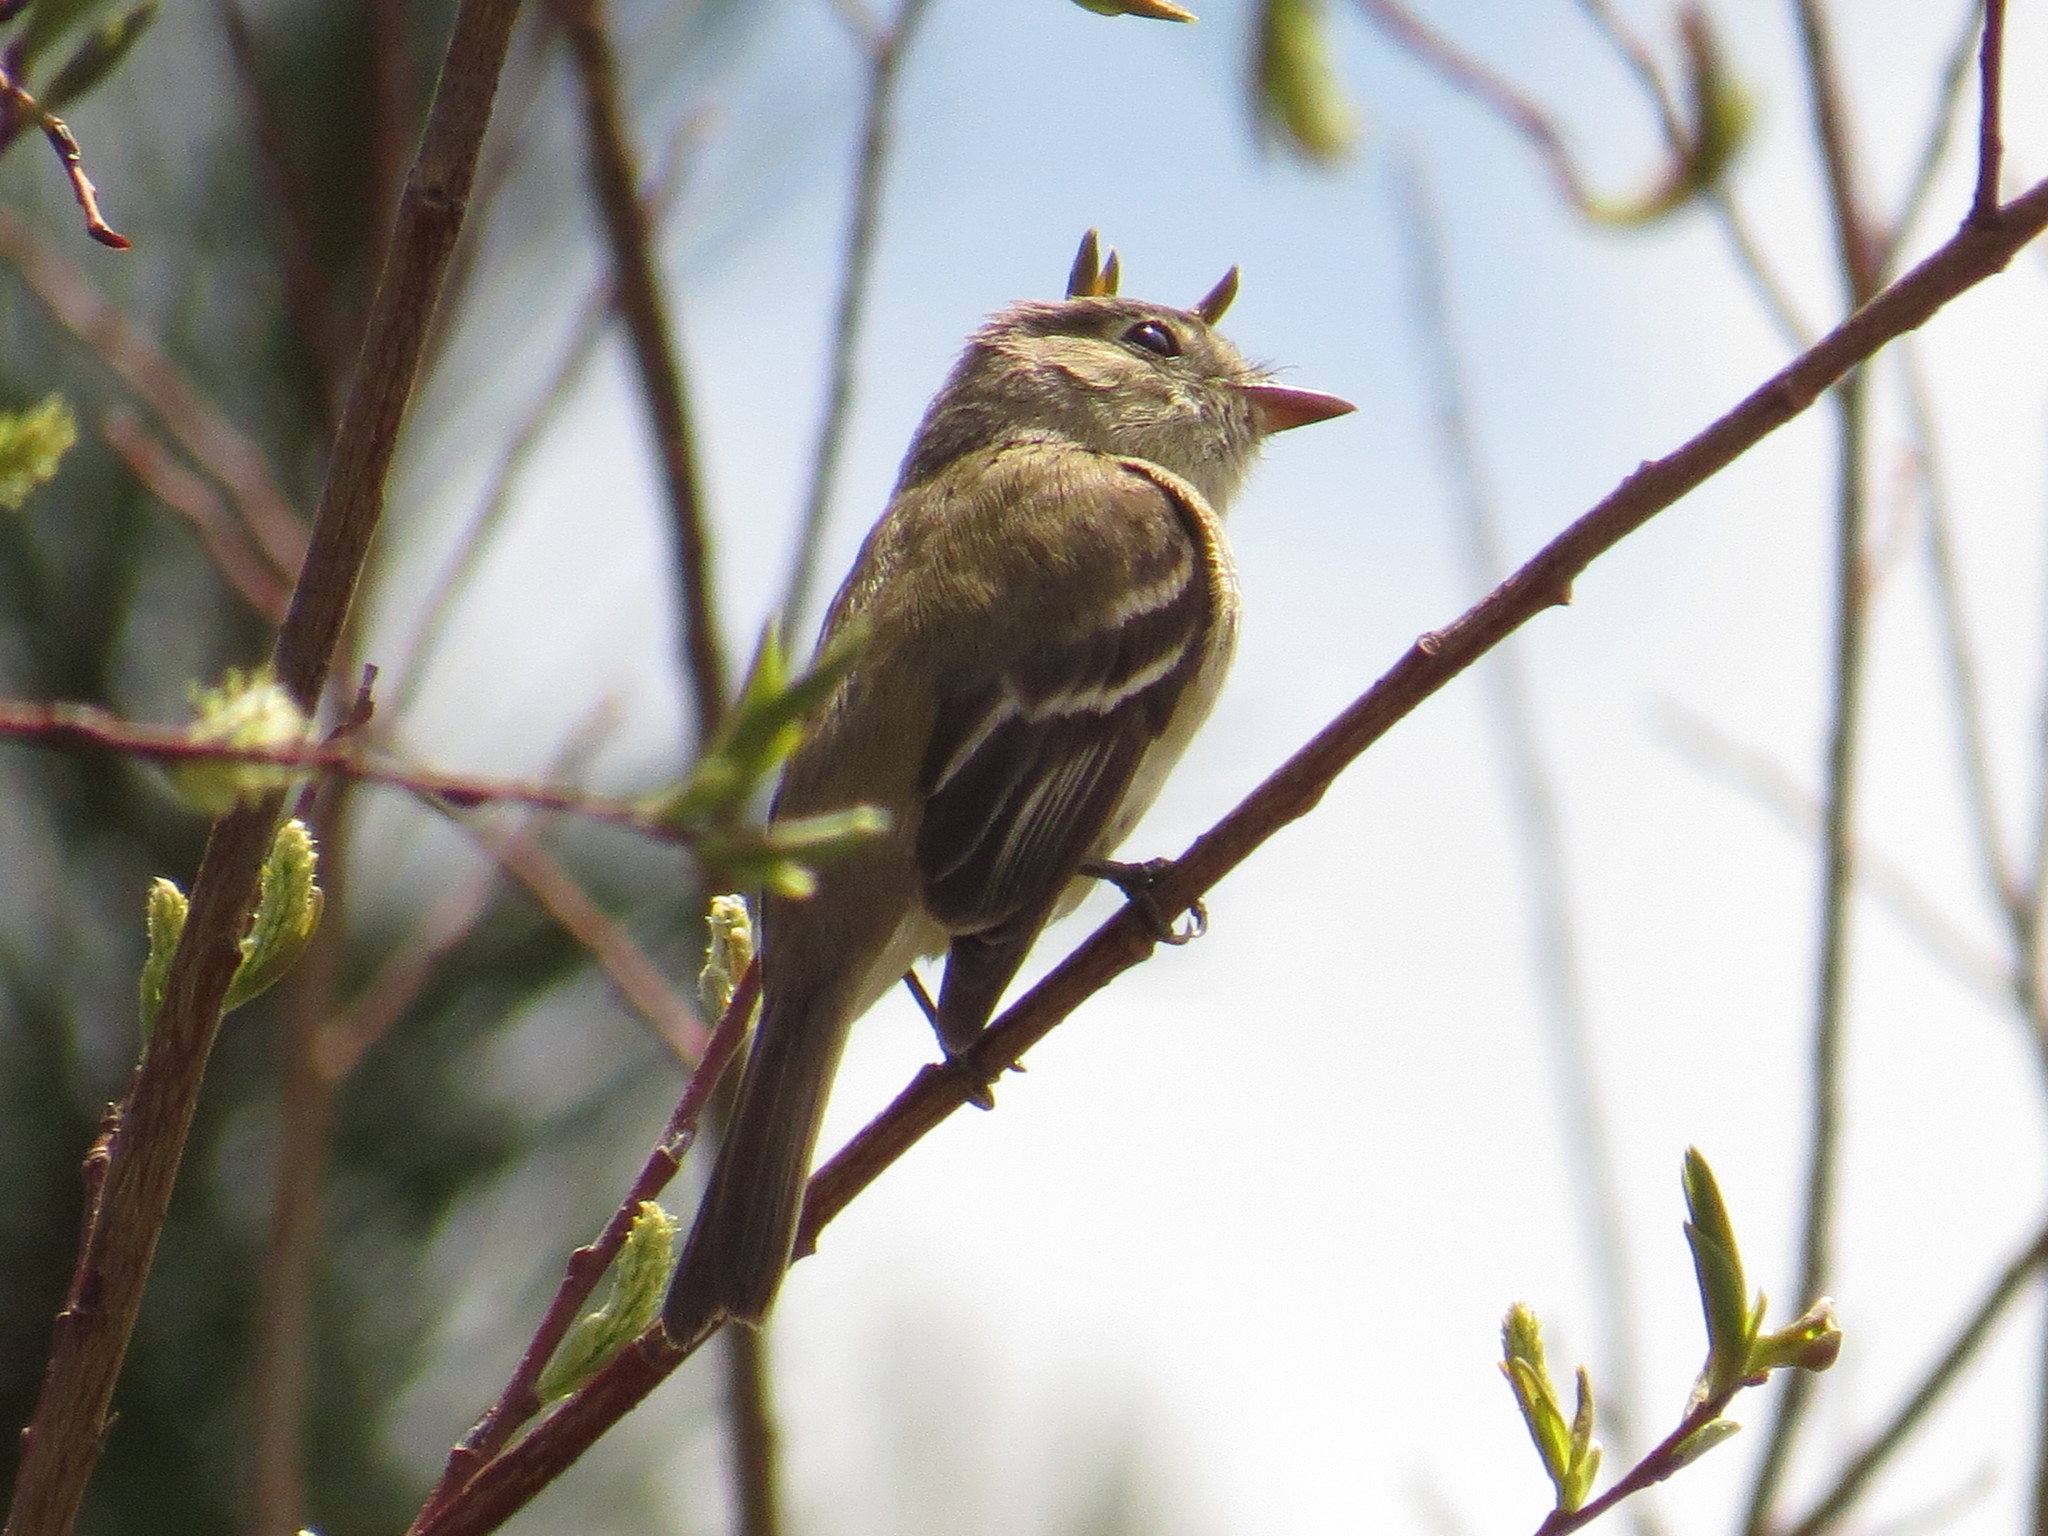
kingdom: Animalia
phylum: Chordata
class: Aves
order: Passeriformes
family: Tyrannidae
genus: Empidonax
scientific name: Empidonax minimus
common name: Least flycatcher
